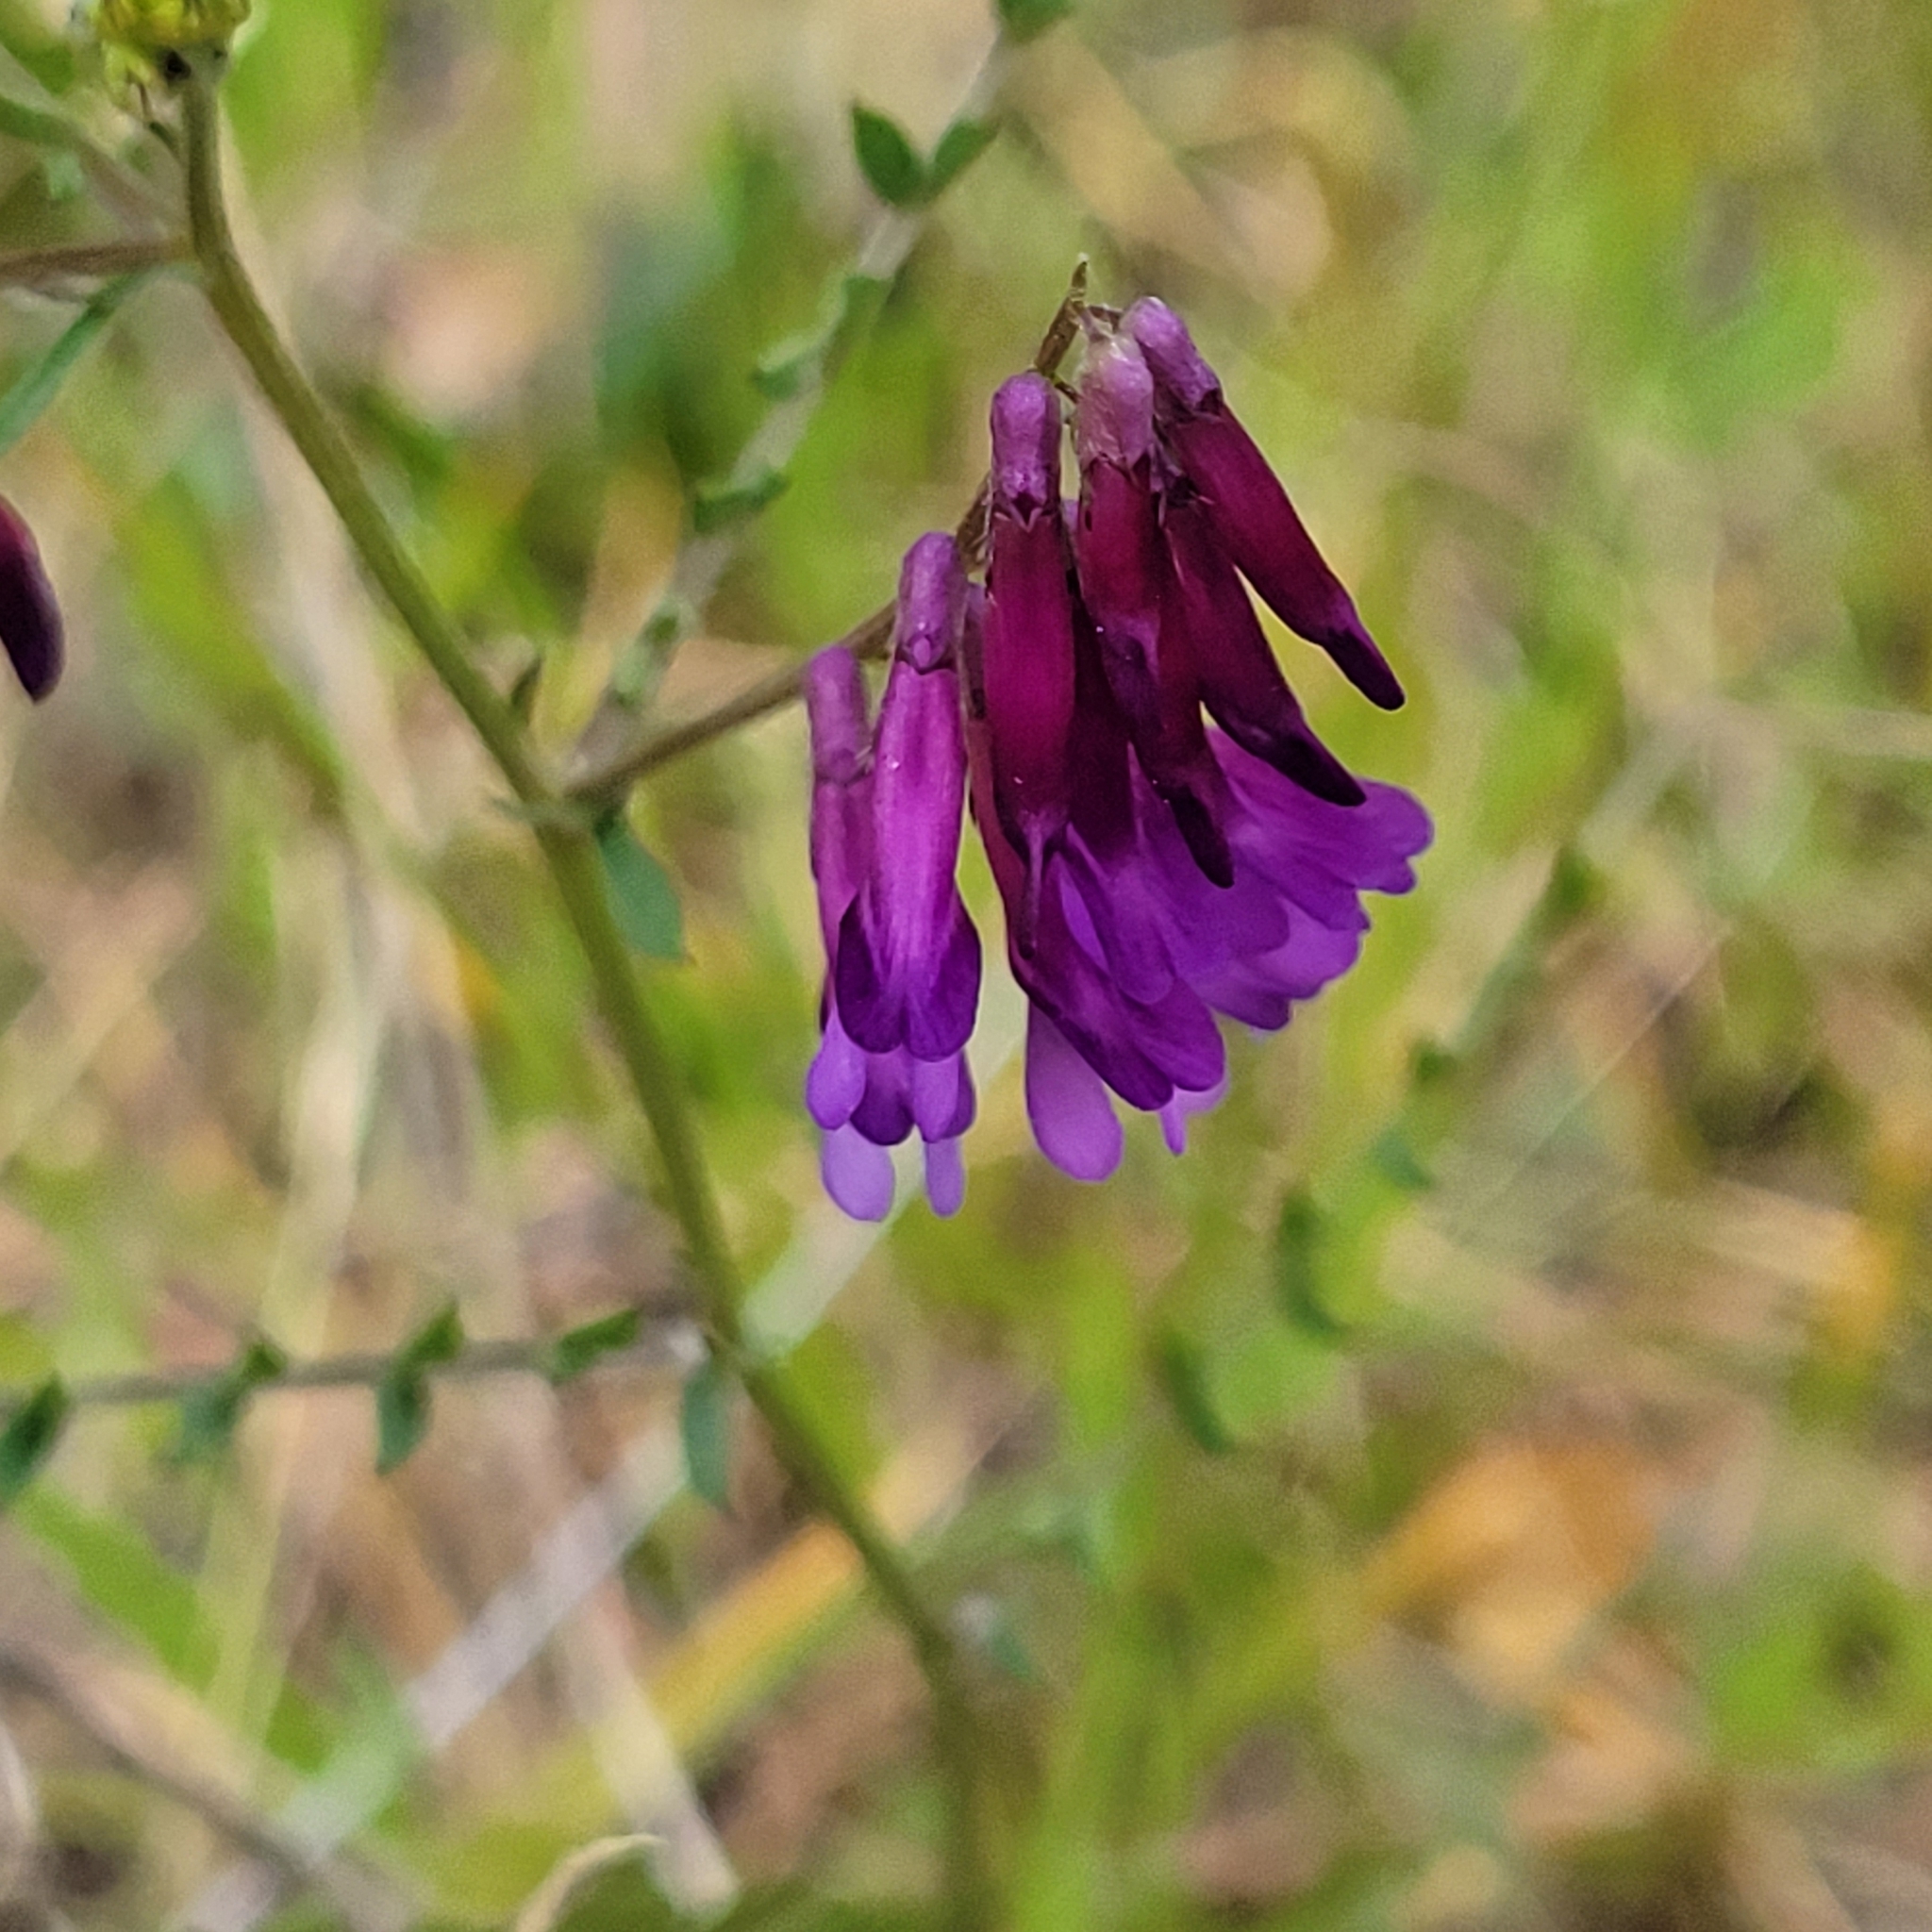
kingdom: Plantae
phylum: Tracheophyta
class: Magnoliopsida
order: Fabales
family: Fabaceae
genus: Vicia
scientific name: Vicia villosa
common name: Fodder vetch
